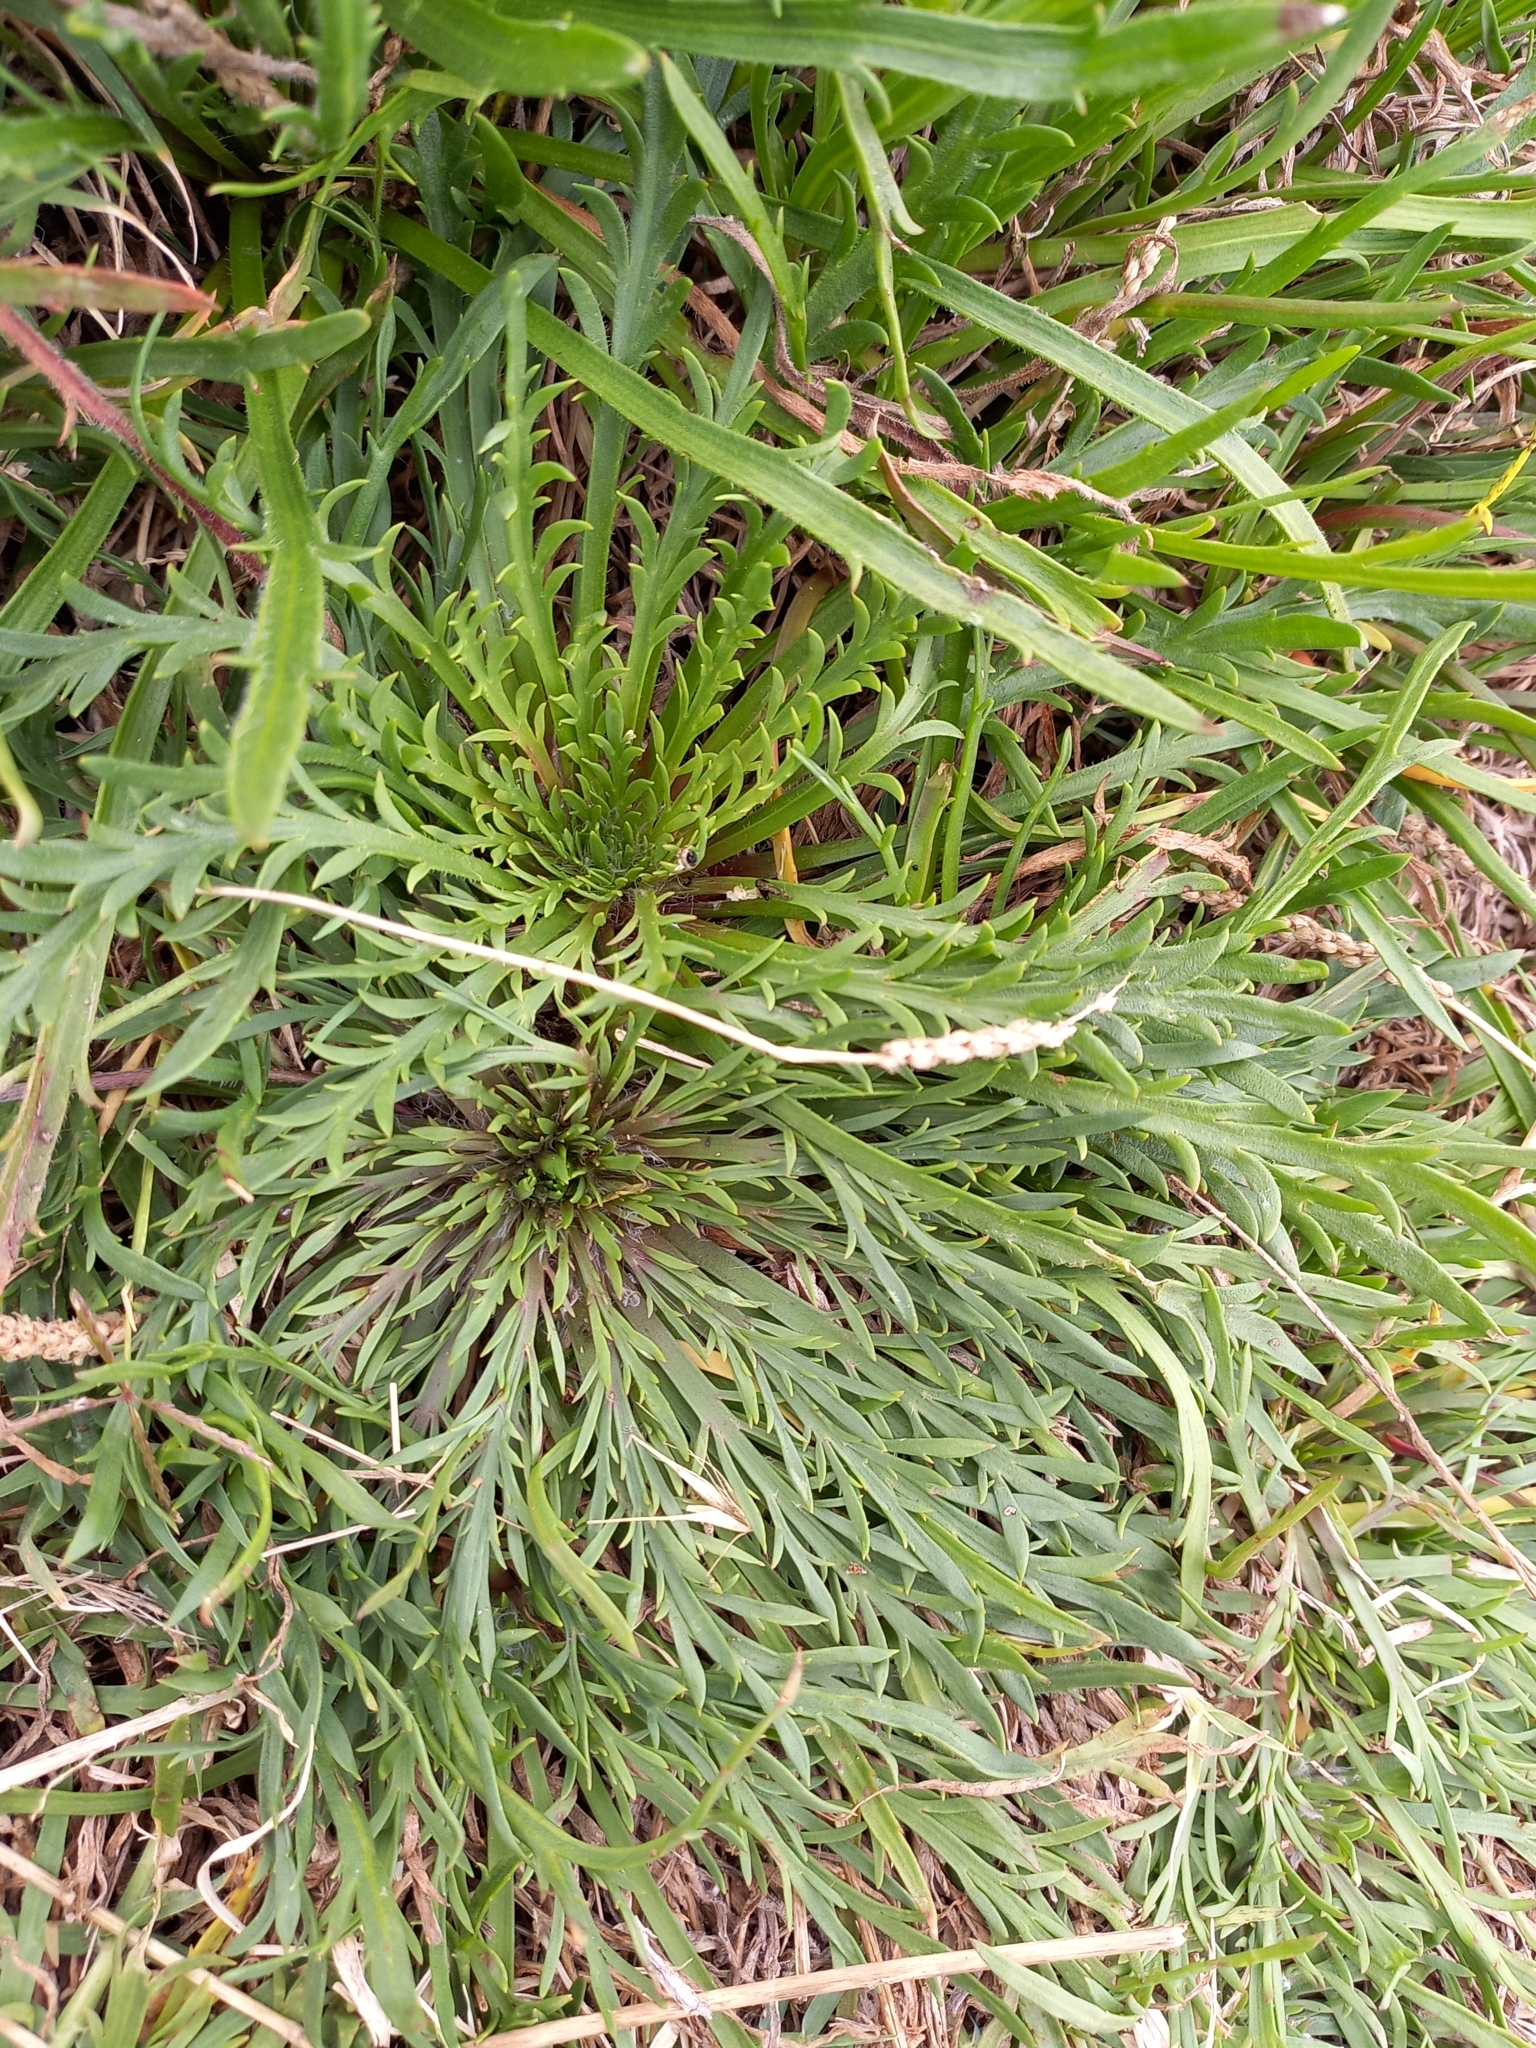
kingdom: Plantae
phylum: Tracheophyta
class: Magnoliopsida
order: Lamiales
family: Plantaginaceae
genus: Plantago
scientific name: Plantago coronopus
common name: Buck's-horn plantain
